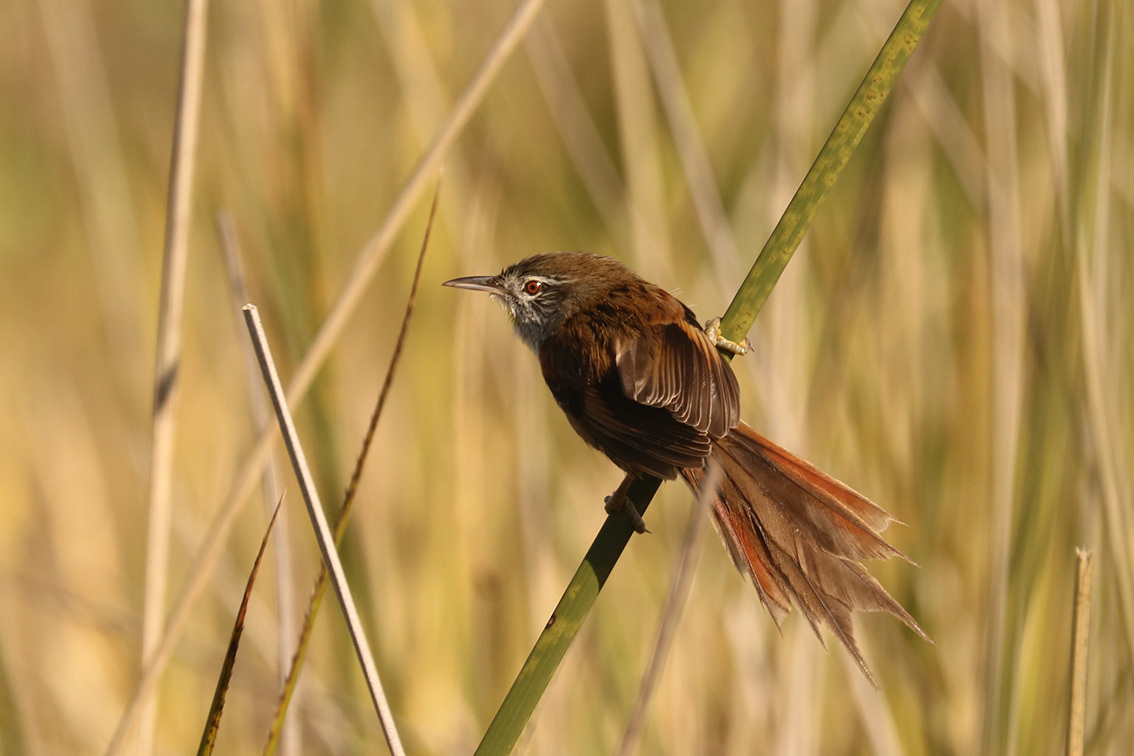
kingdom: Animalia
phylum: Chordata
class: Aves
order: Passeriformes
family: Furnariidae
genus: Cranioleuca
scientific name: Cranioleuca sulphurifera
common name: Sulphur-bearded spinetail
